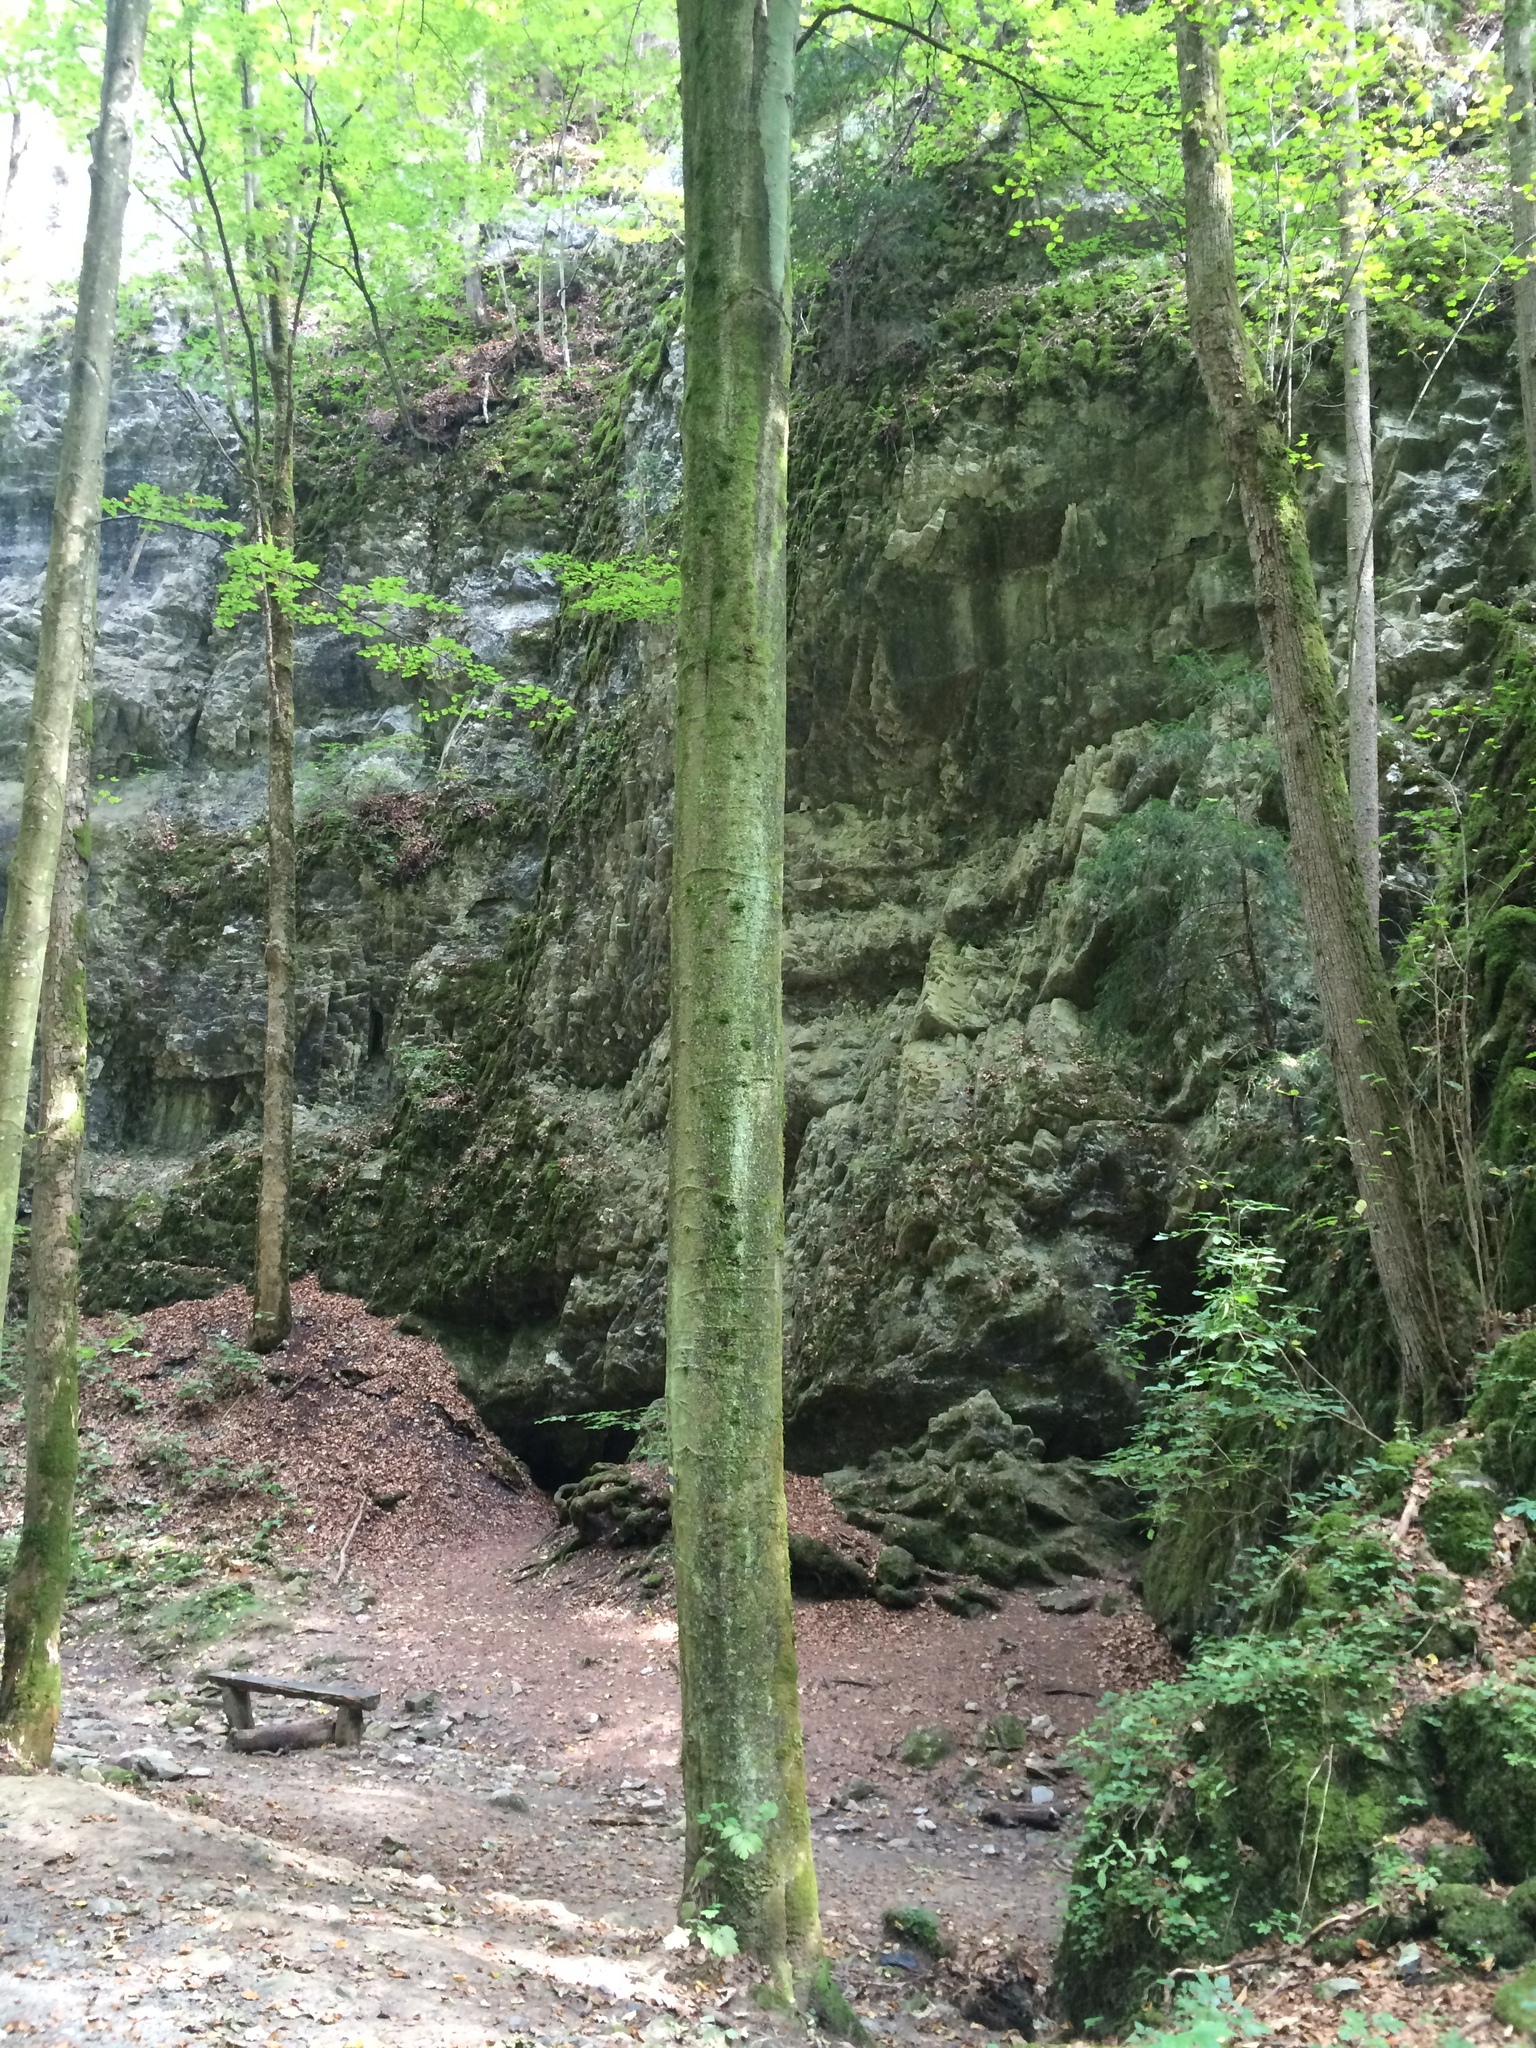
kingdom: Plantae
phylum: Tracheophyta
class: Magnoliopsida
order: Fagales
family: Fagaceae
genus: Fagus
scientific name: Fagus sylvatica
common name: Beech
